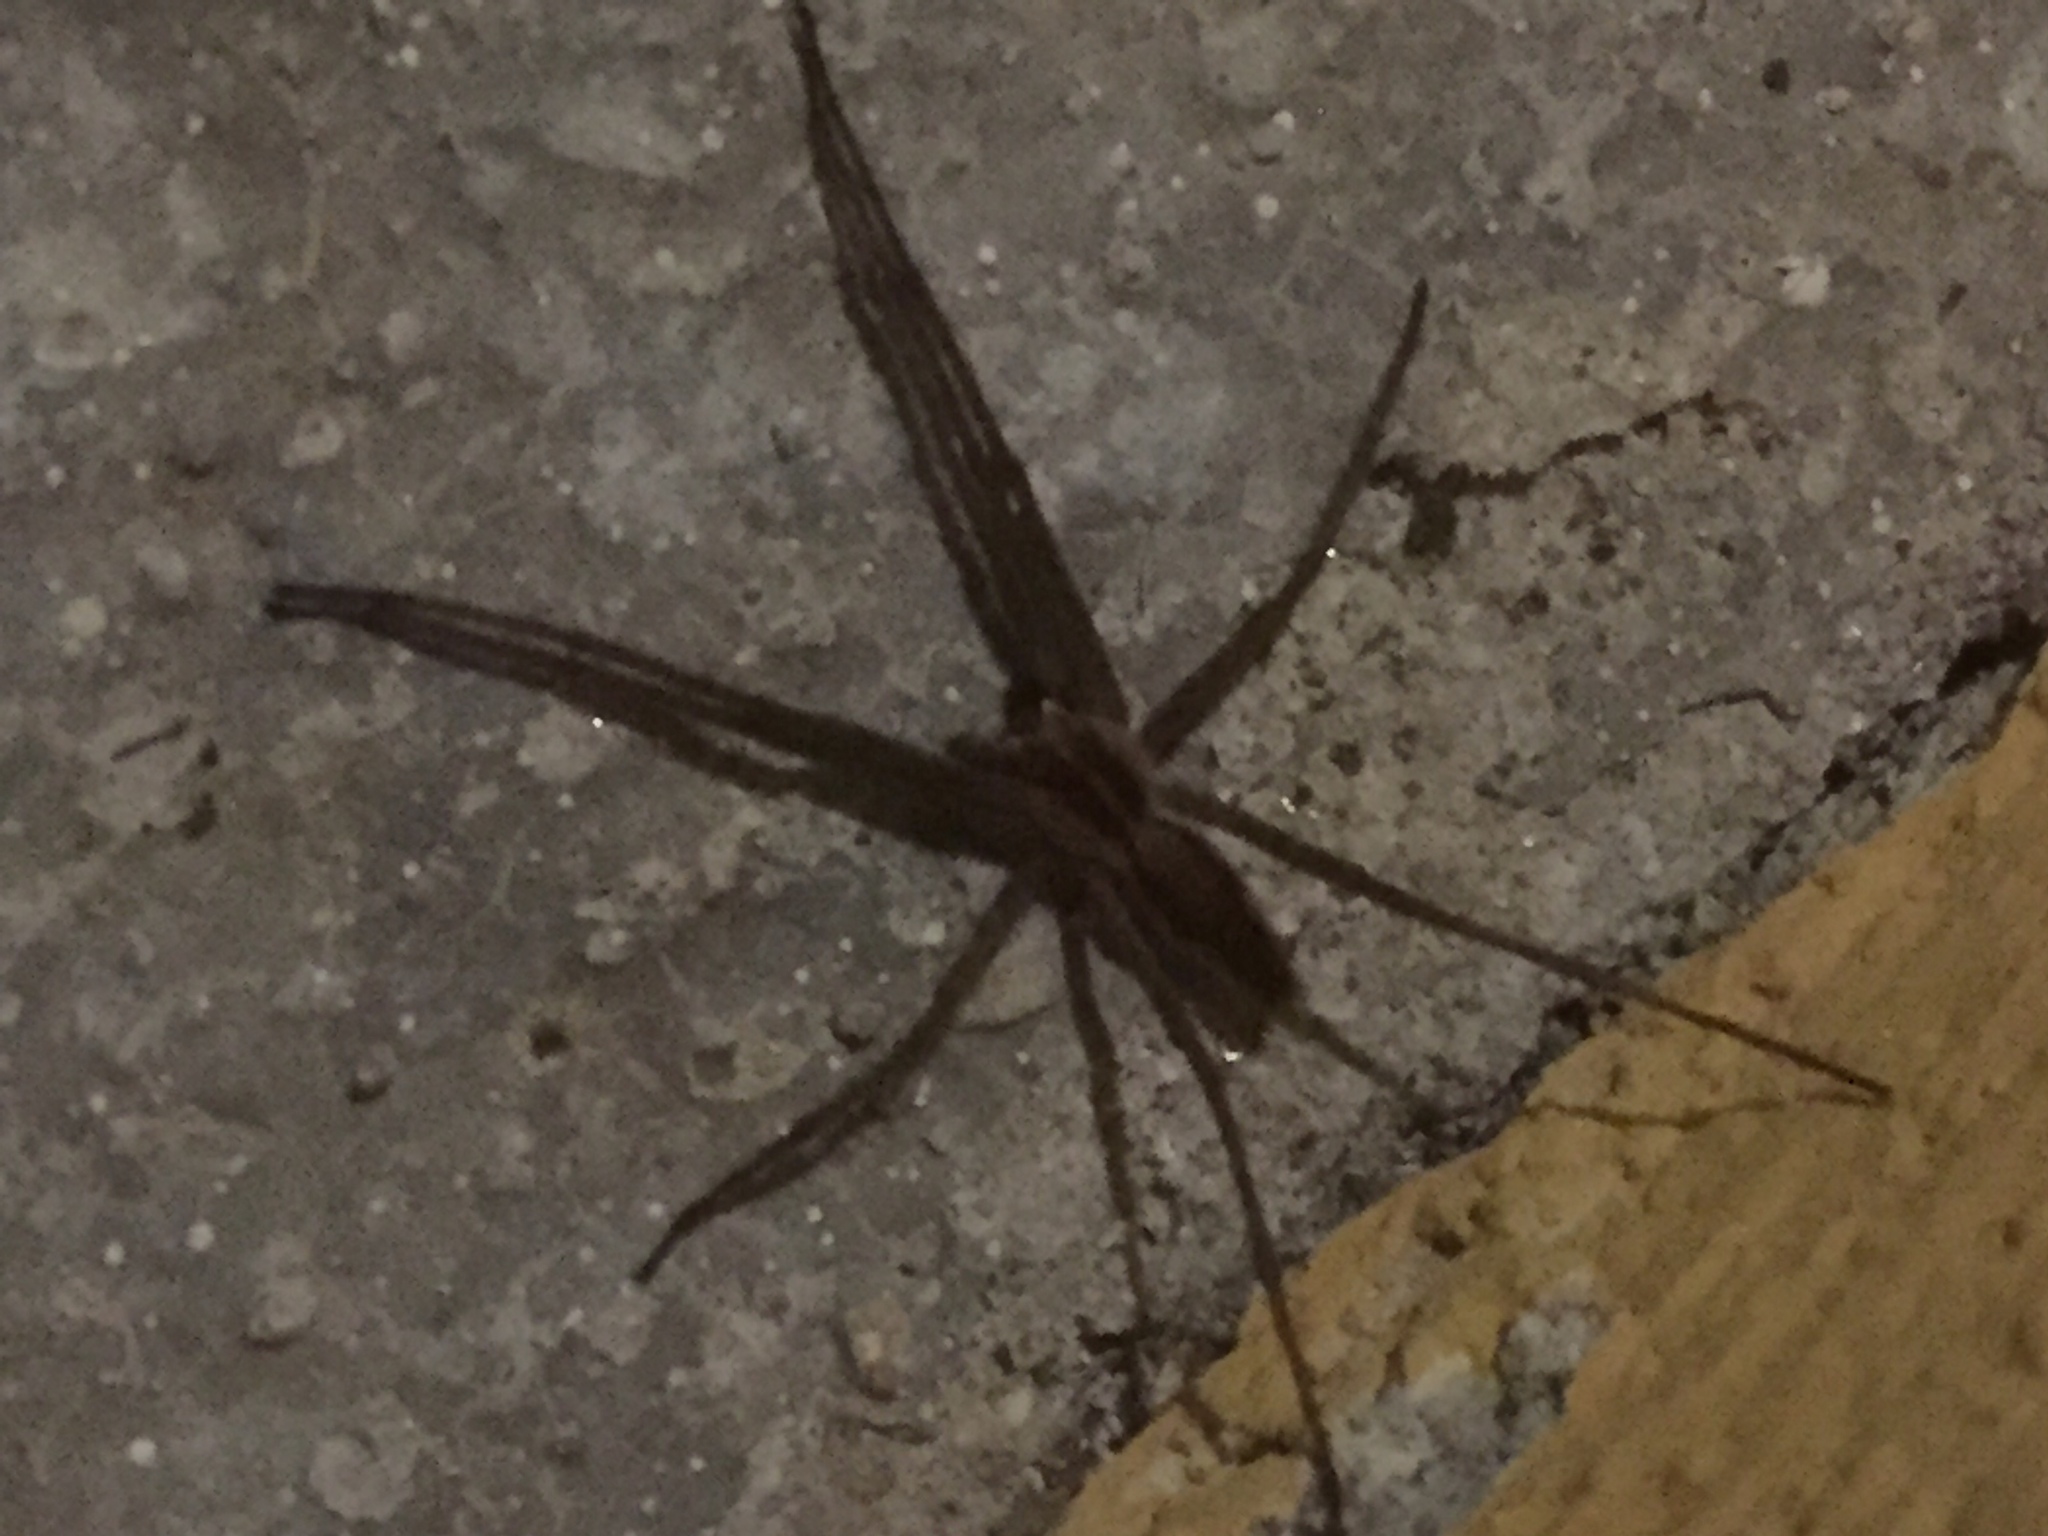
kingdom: Animalia
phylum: Arthropoda
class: Arachnida
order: Araneae
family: Pisauridae
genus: Pisaura
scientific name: Pisaura mirabilis
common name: Tent spider
